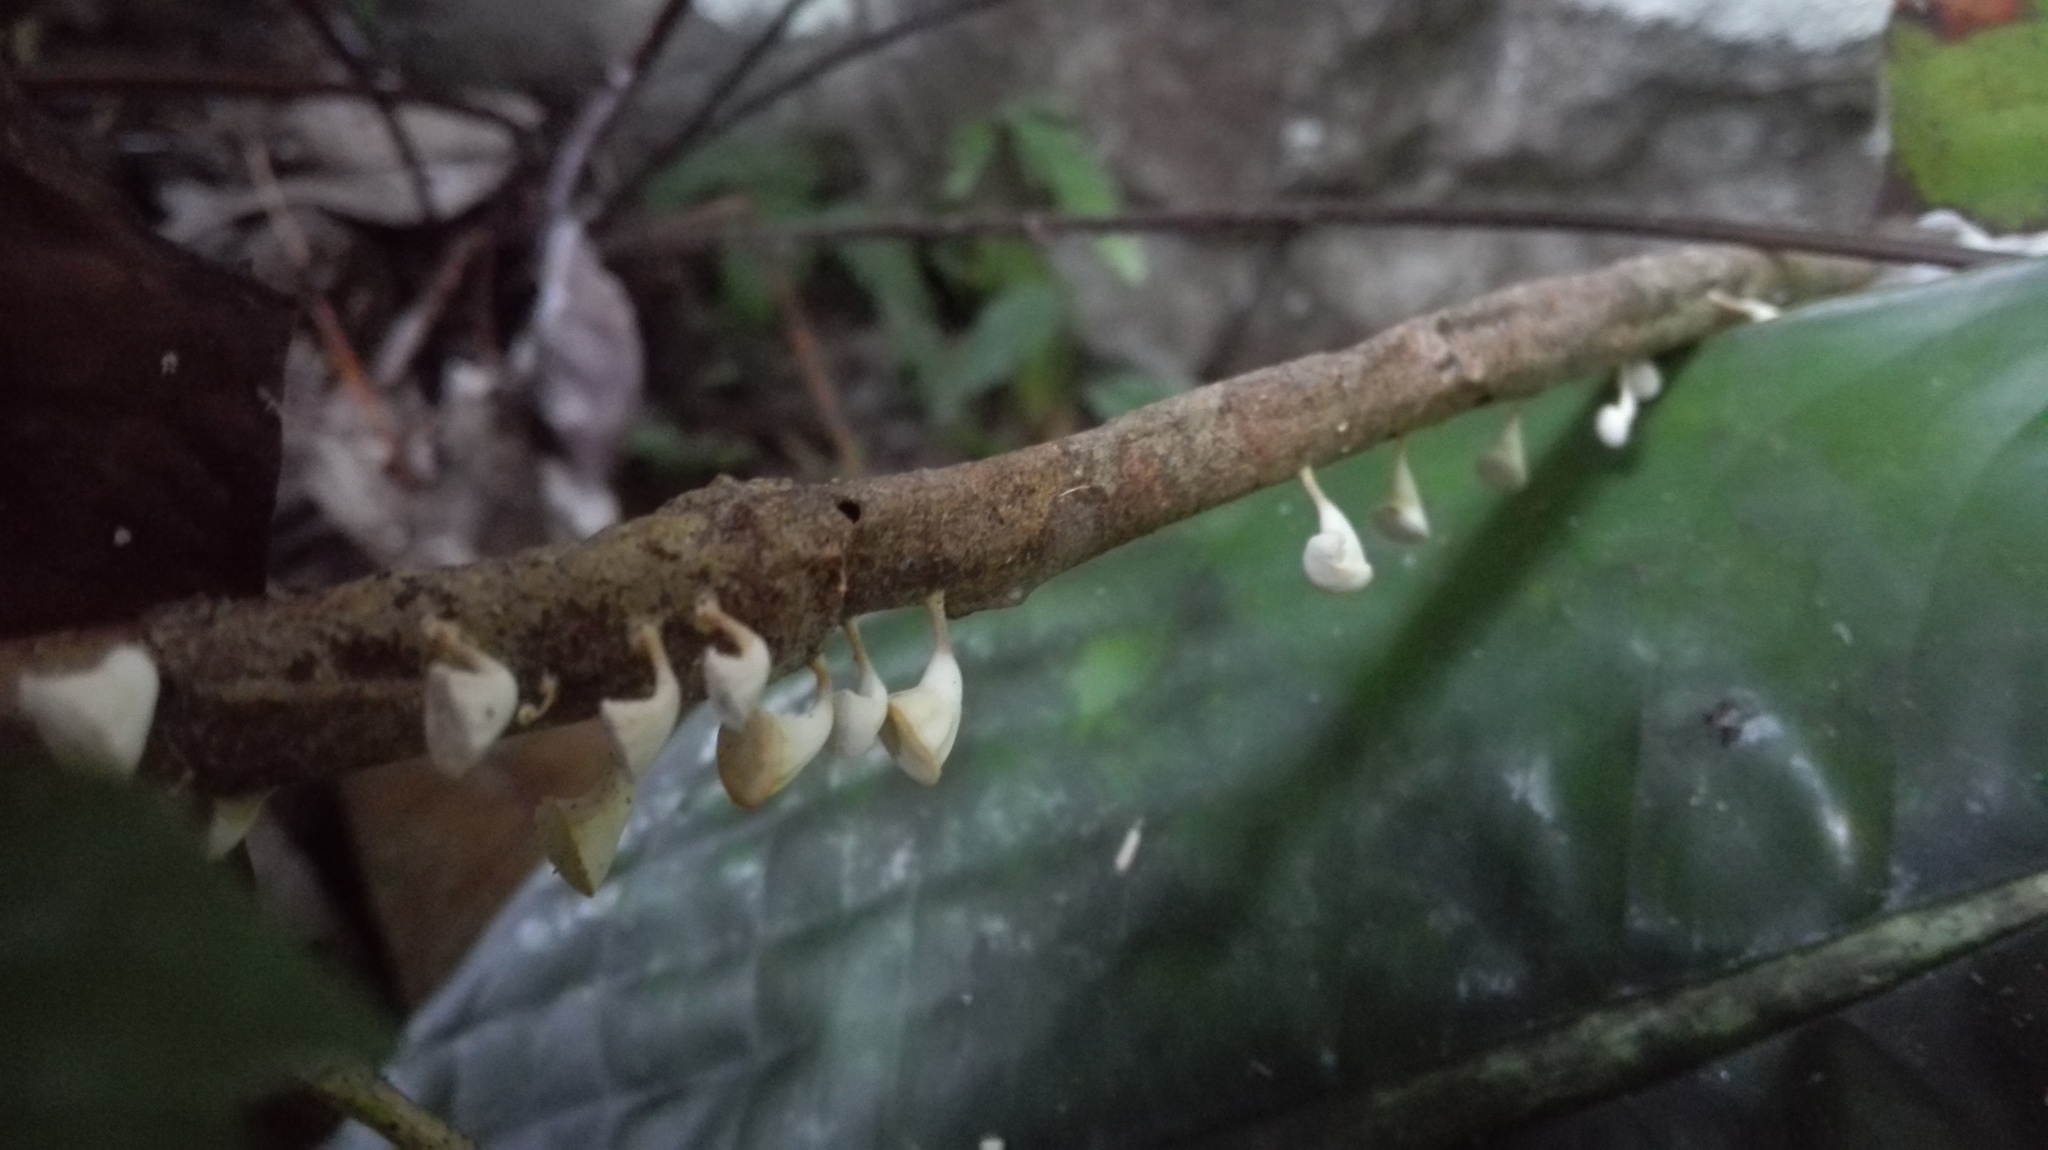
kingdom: Fungi
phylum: Basidiomycota
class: Agaricomycetes
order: Agaricales
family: Omphalotaceae
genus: Gymnopus
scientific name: Gymnopus montagnei
